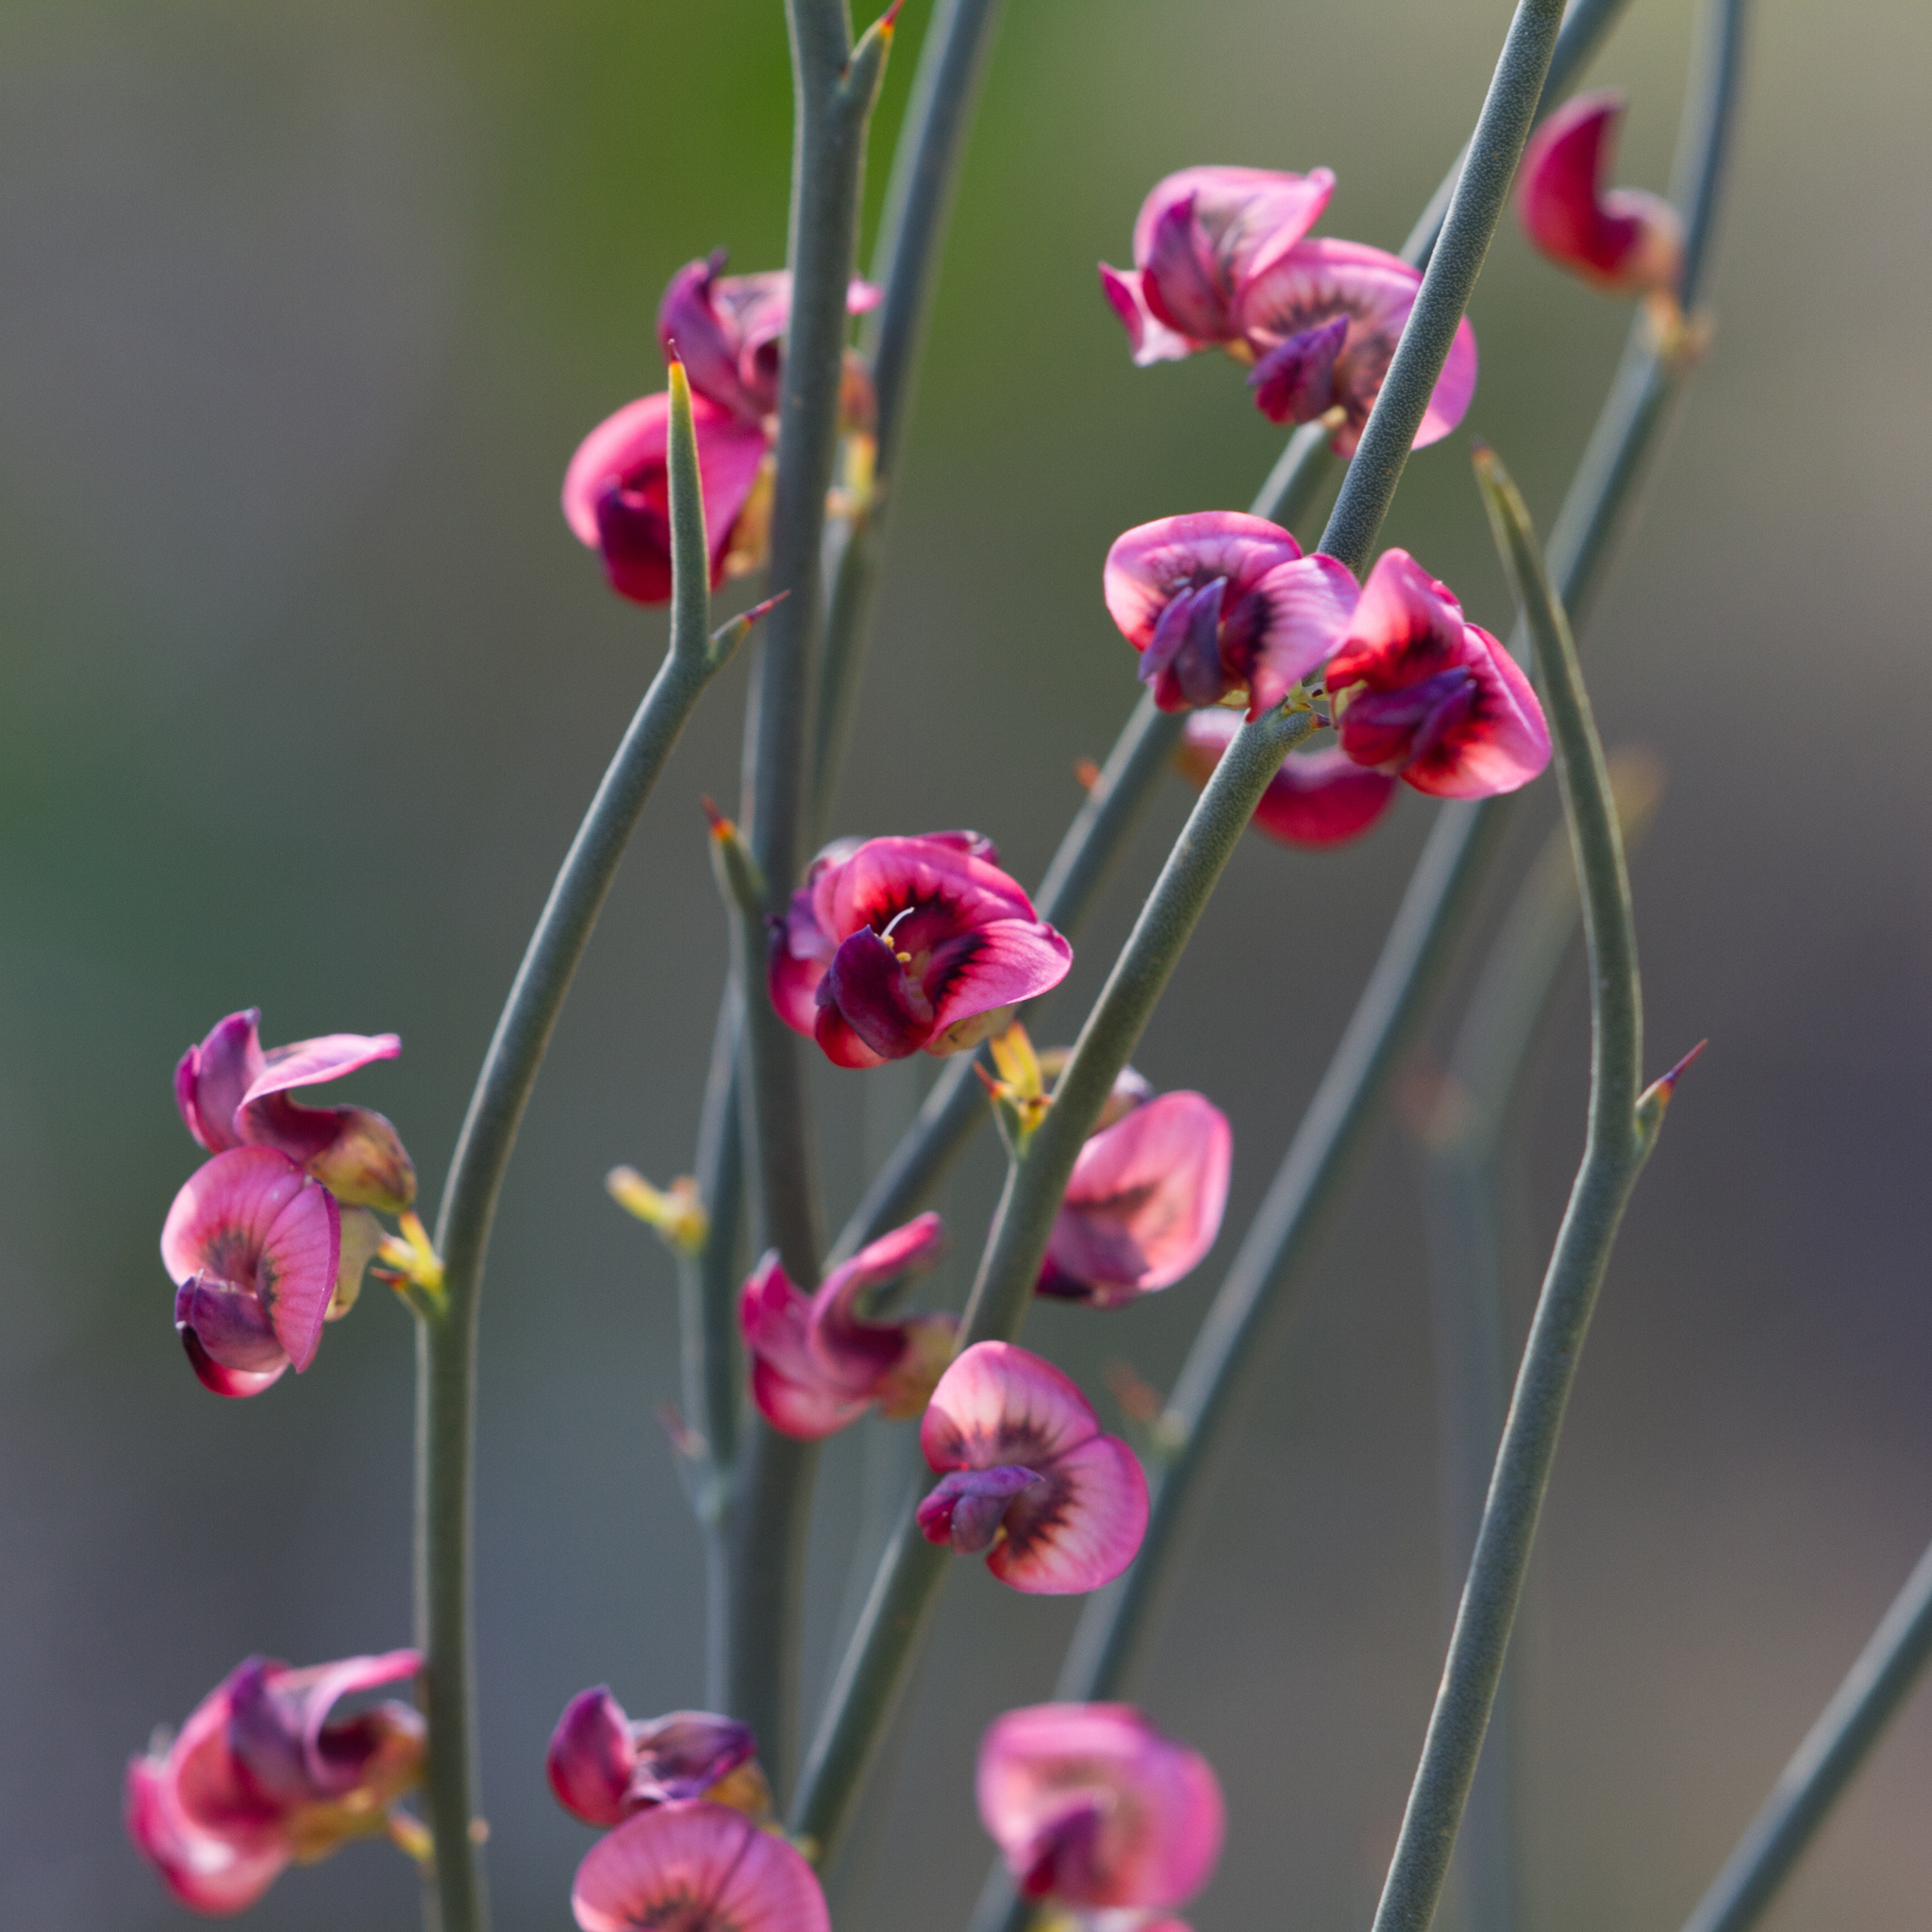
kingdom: Plantae
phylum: Tracheophyta
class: Magnoliopsida
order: Fabales
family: Fabaceae
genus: Daviesia
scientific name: Daviesia brevifolia
